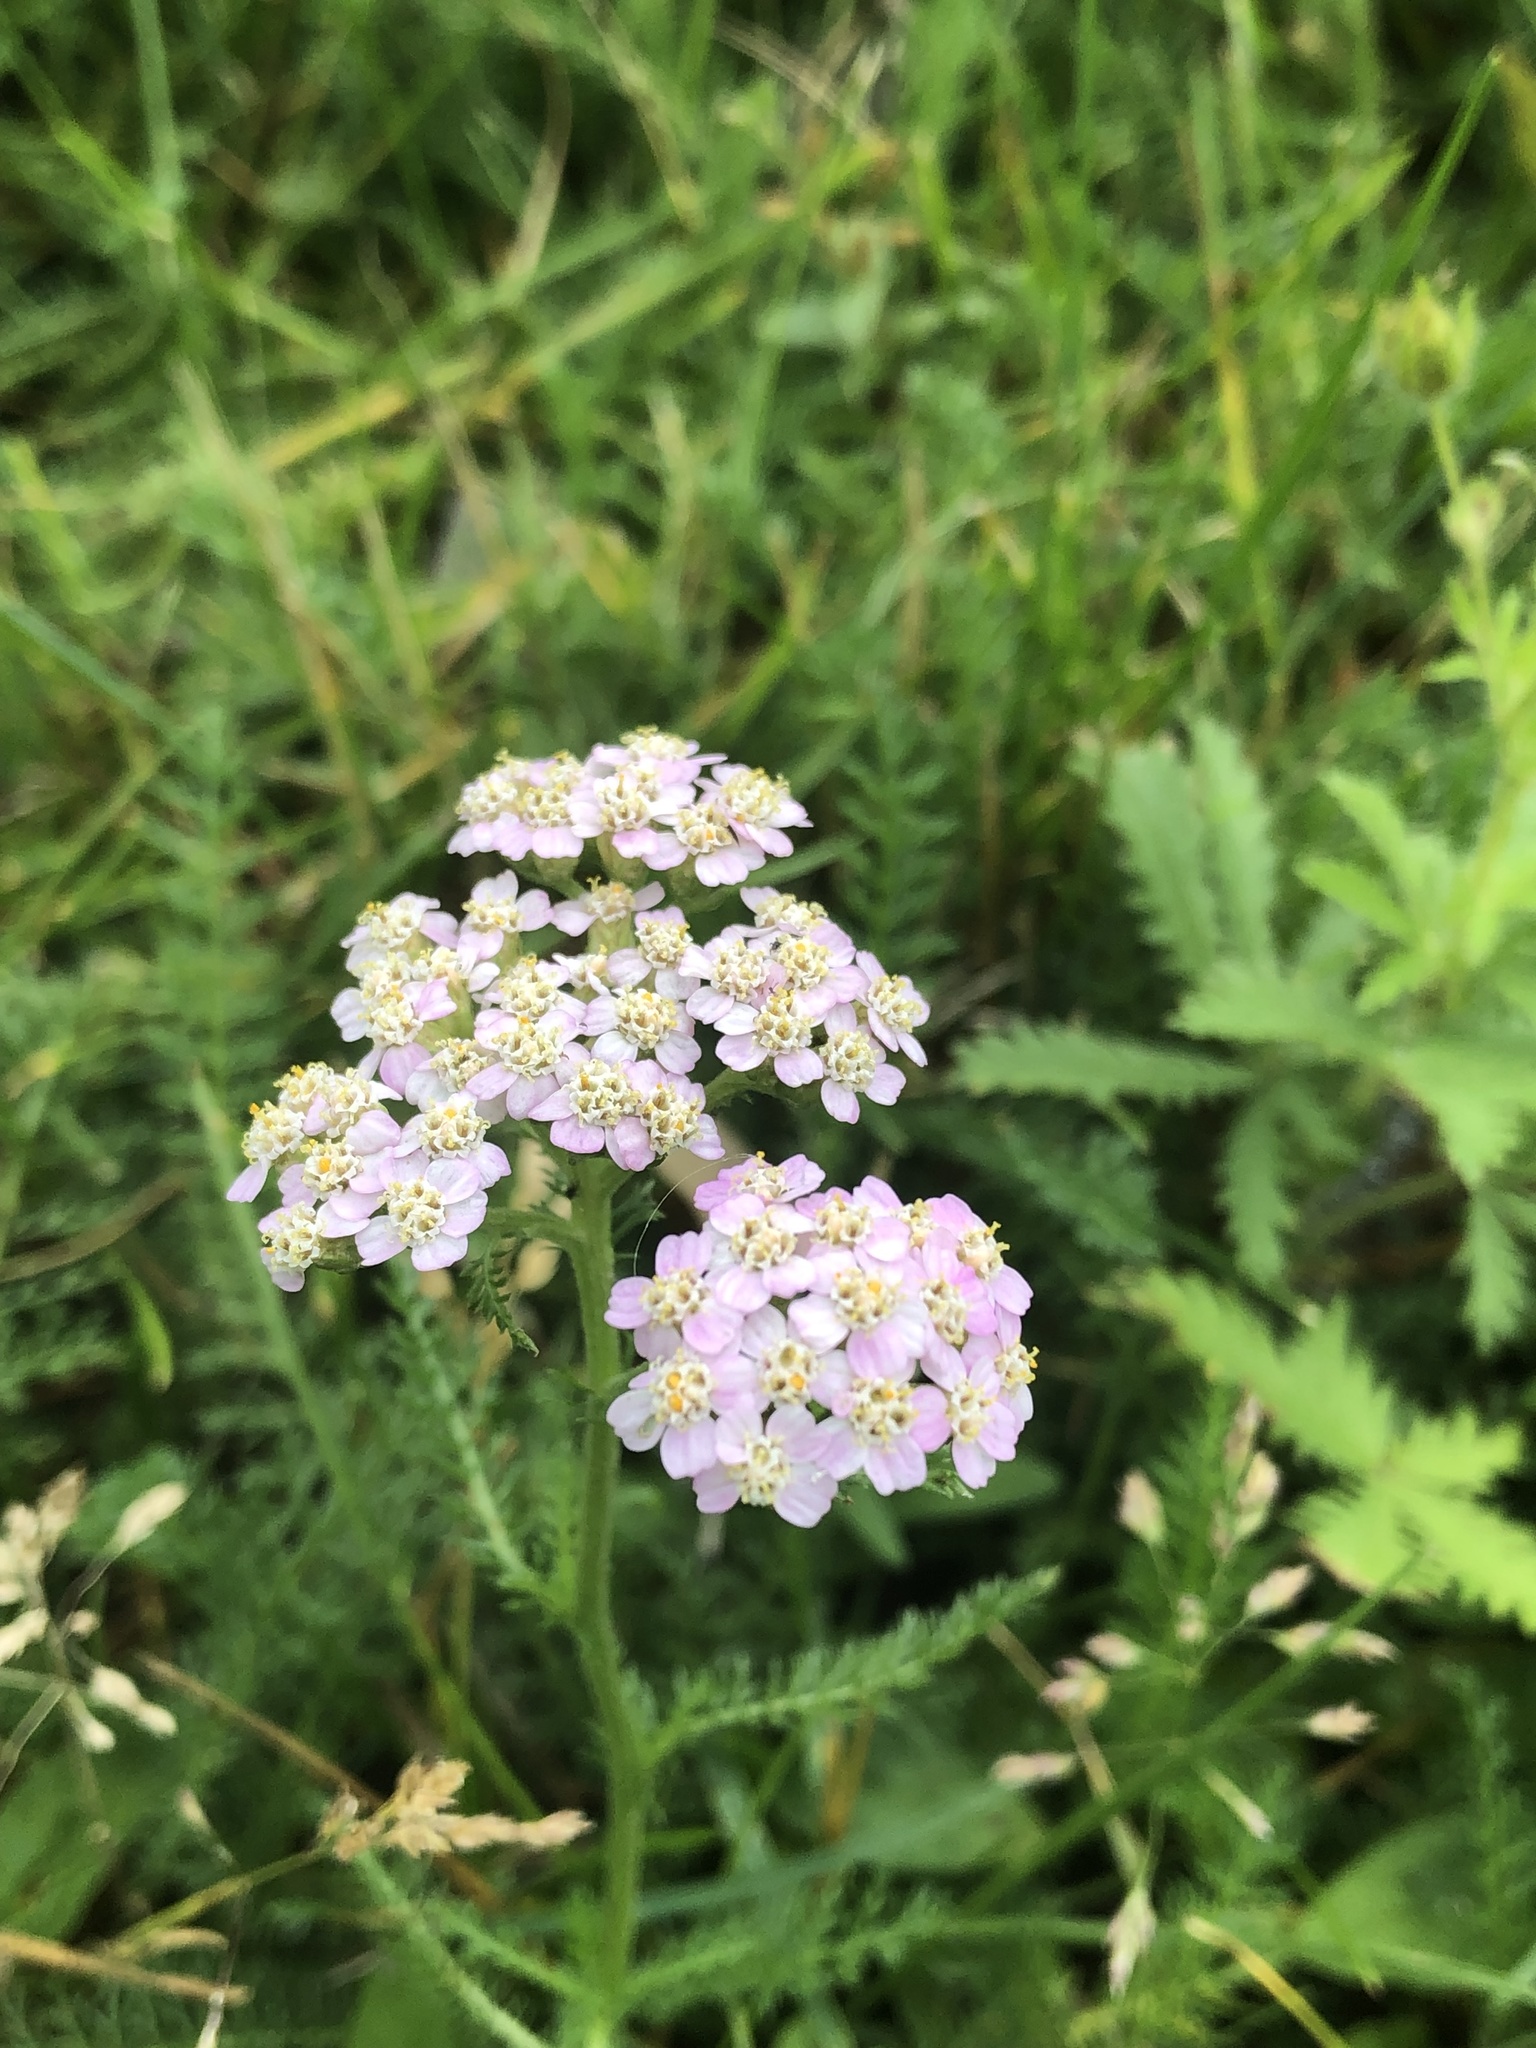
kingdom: Plantae
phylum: Tracheophyta
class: Magnoliopsida
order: Asterales
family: Asteraceae
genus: Achillea
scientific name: Achillea millefolium
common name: Yarrow
